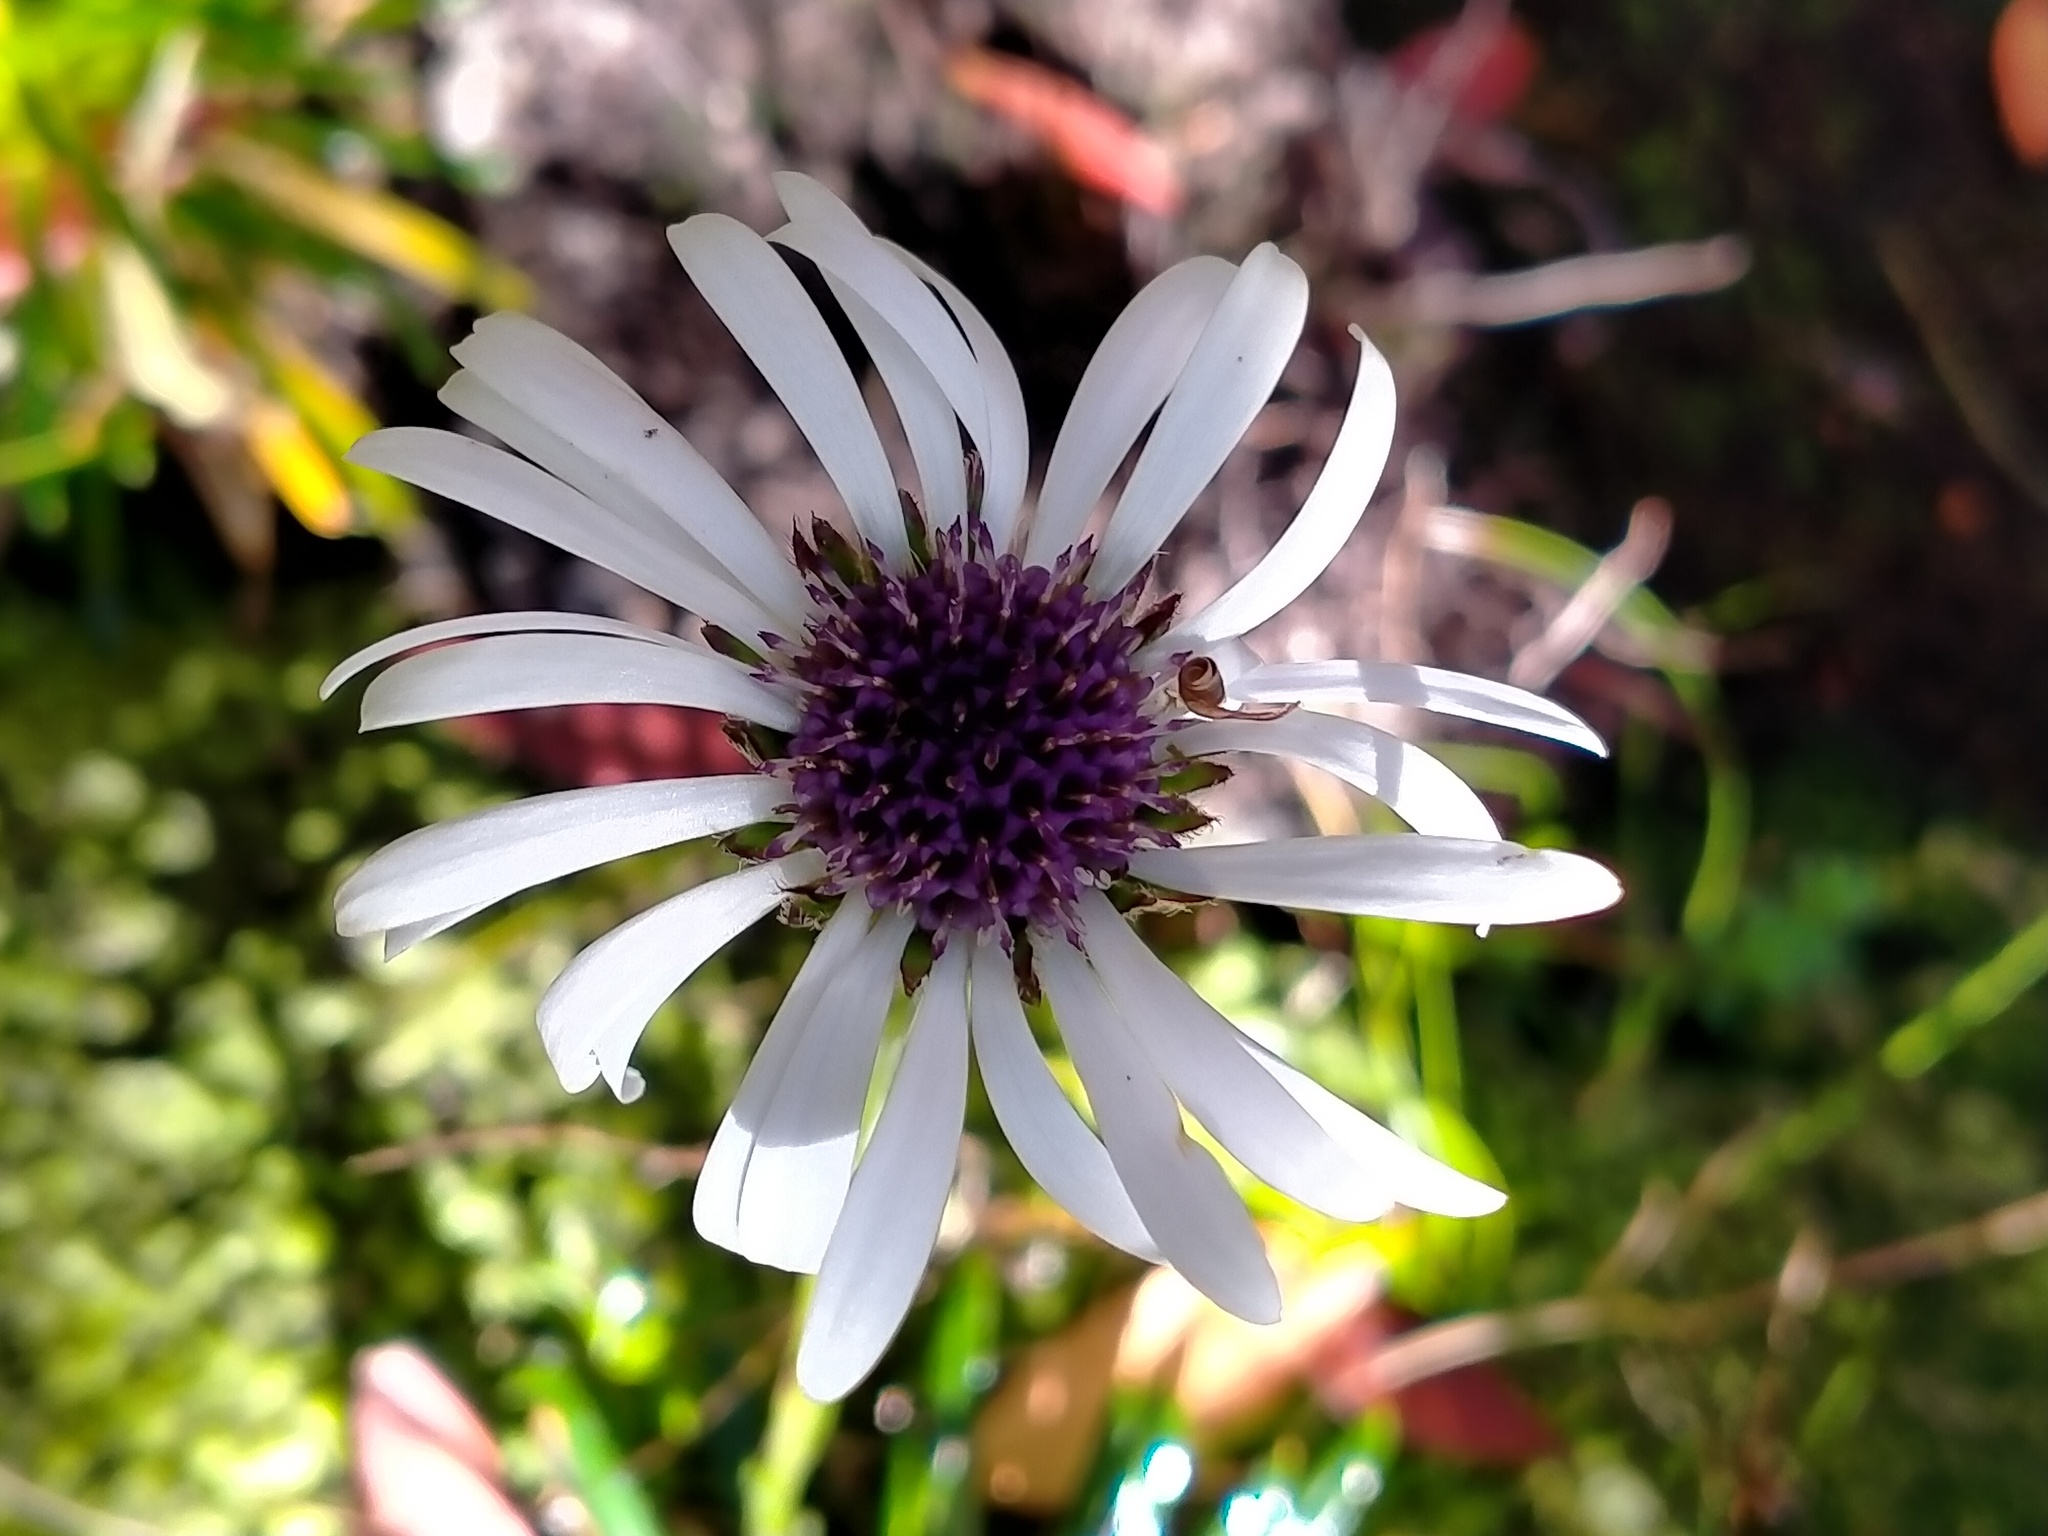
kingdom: Plantae
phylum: Tracheophyta
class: Magnoliopsida
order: Asterales
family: Asteraceae
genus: Damnamenia
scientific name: Damnamenia vernicosa
